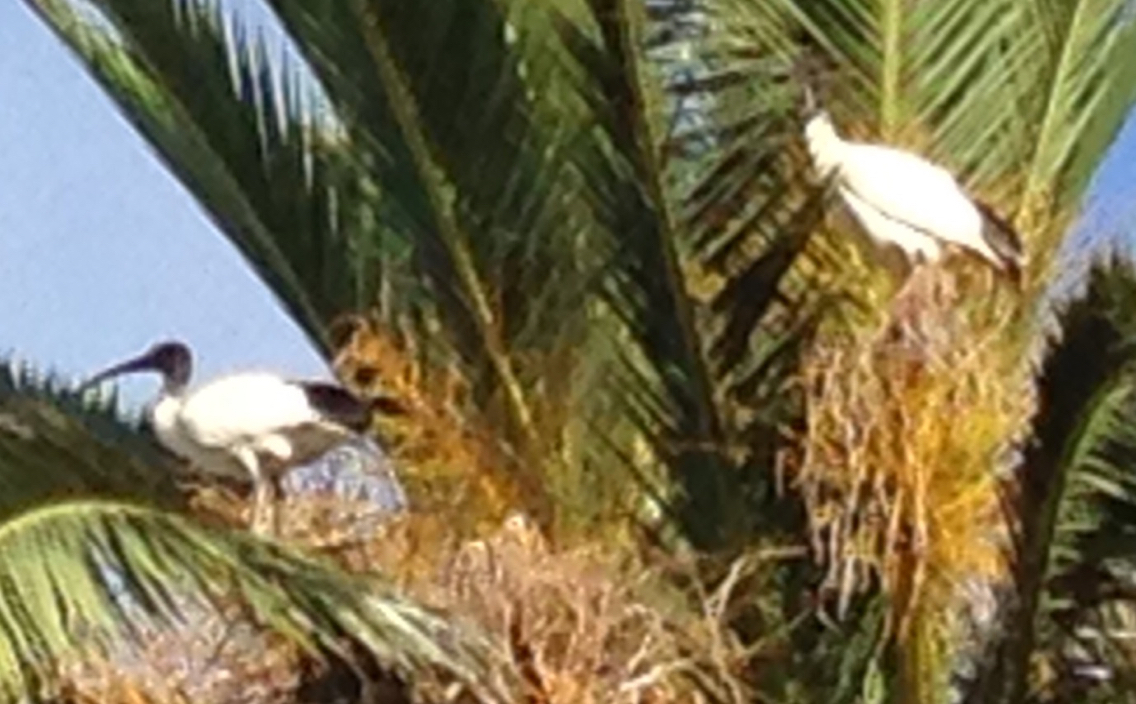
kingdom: Animalia
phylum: Chordata
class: Aves
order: Pelecaniformes
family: Threskiornithidae
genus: Threskiornis
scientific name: Threskiornis molucca
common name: Australian white ibis
